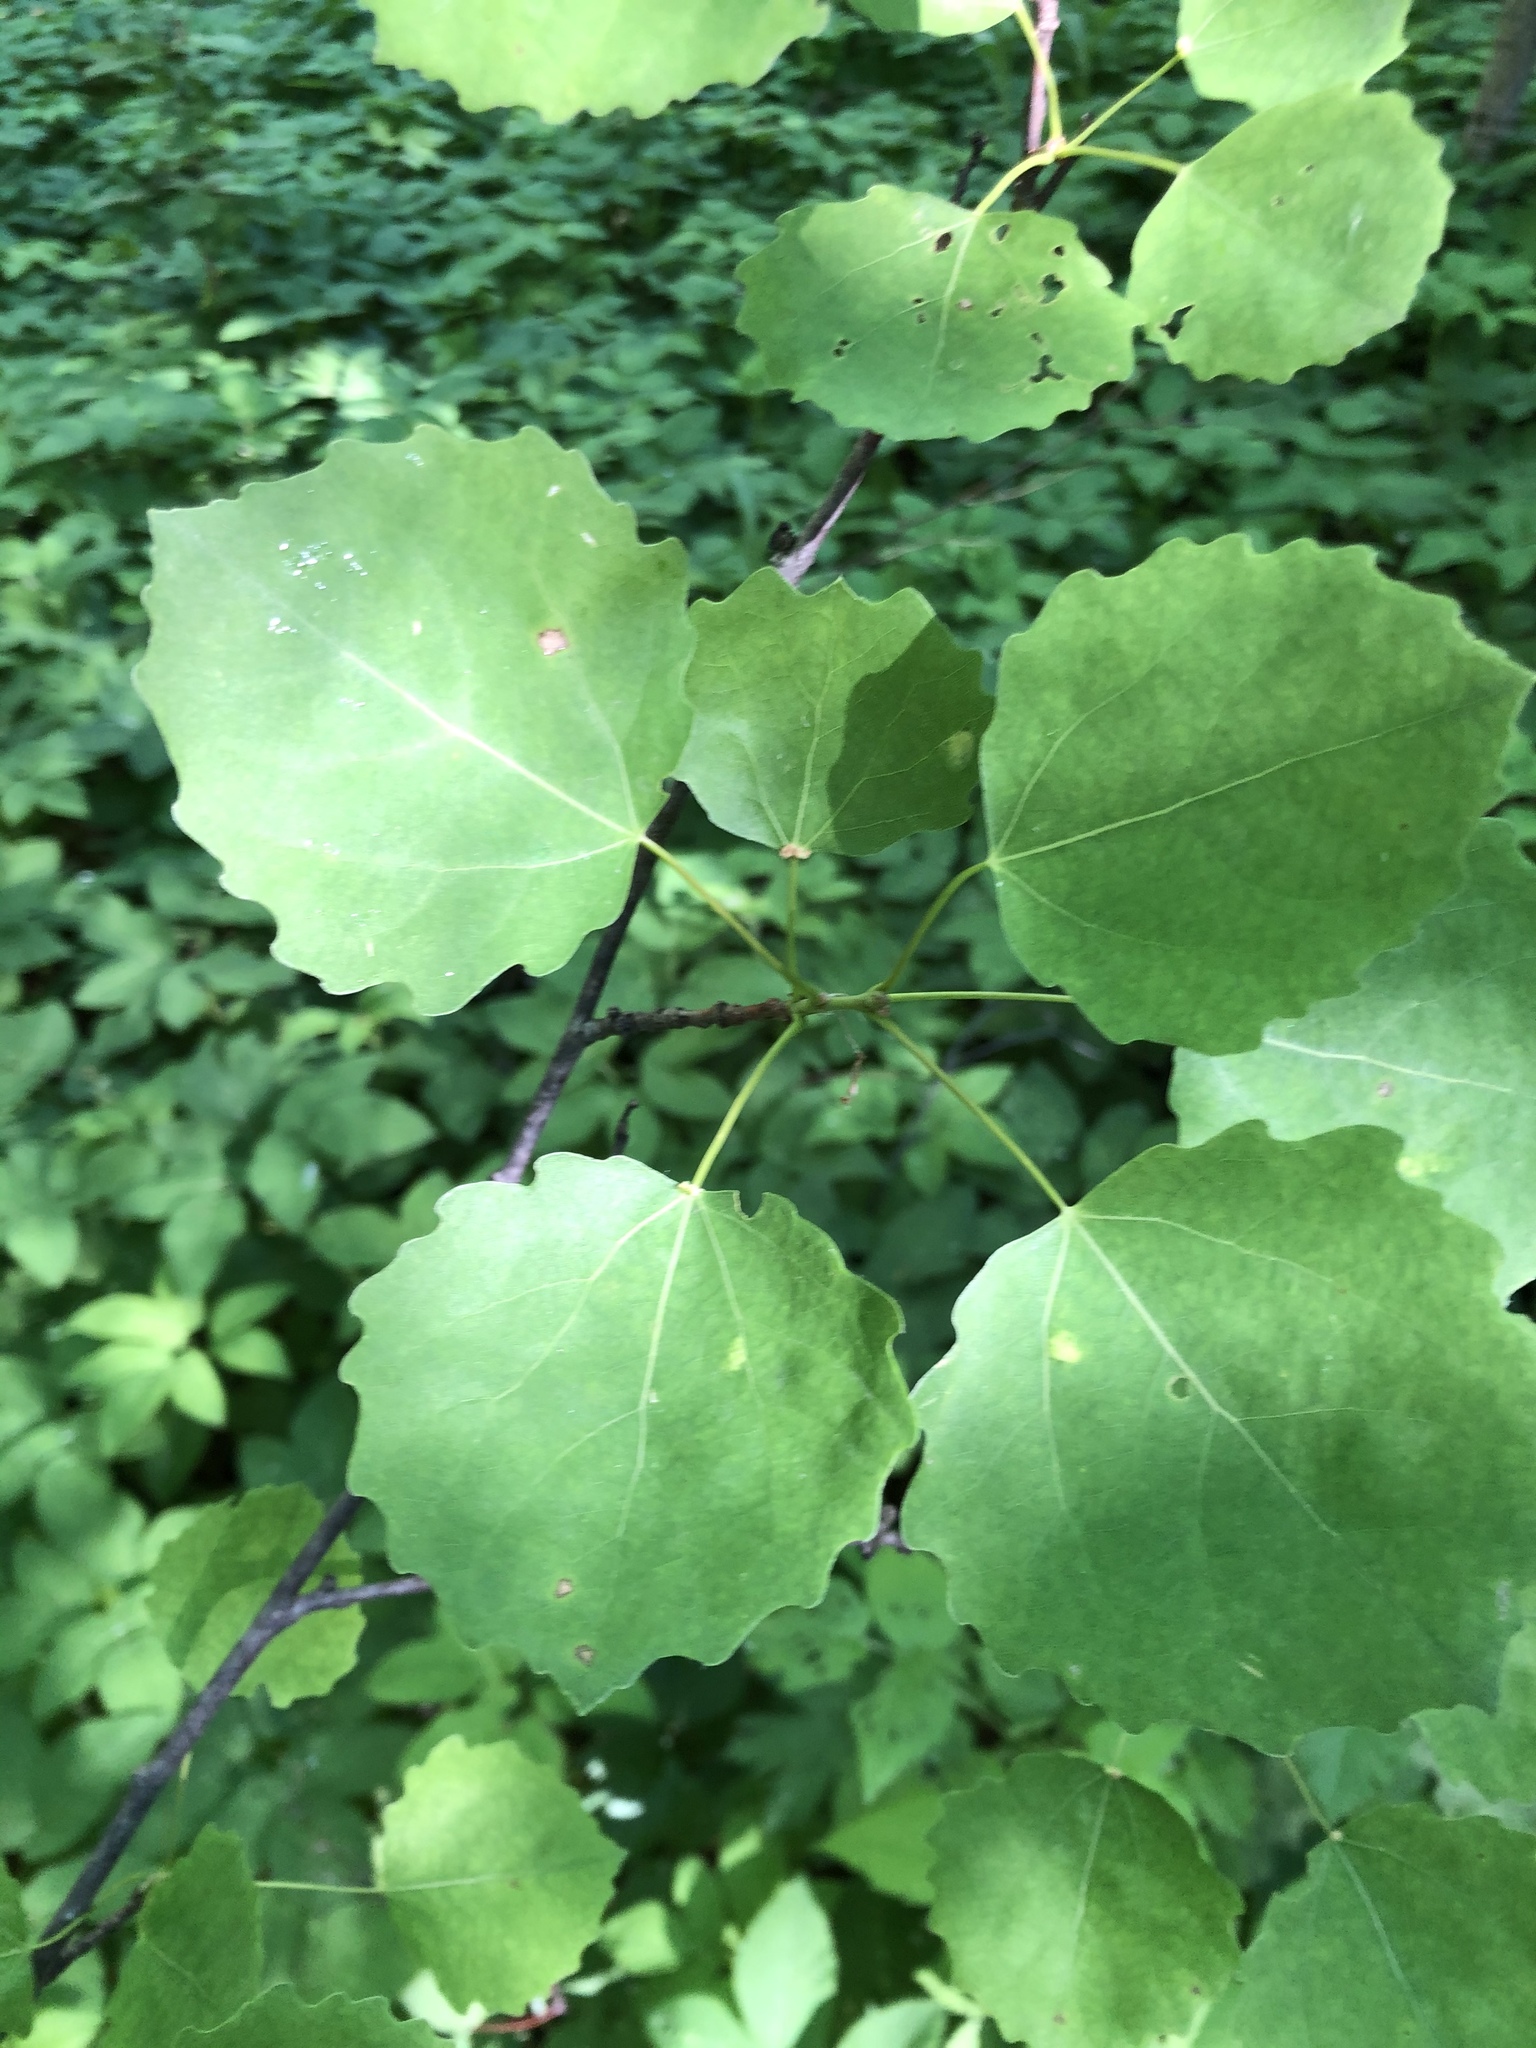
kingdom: Plantae
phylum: Tracheophyta
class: Magnoliopsida
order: Malpighiales
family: Salicaceae
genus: Populus
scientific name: Populus tremula
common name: European aspen
